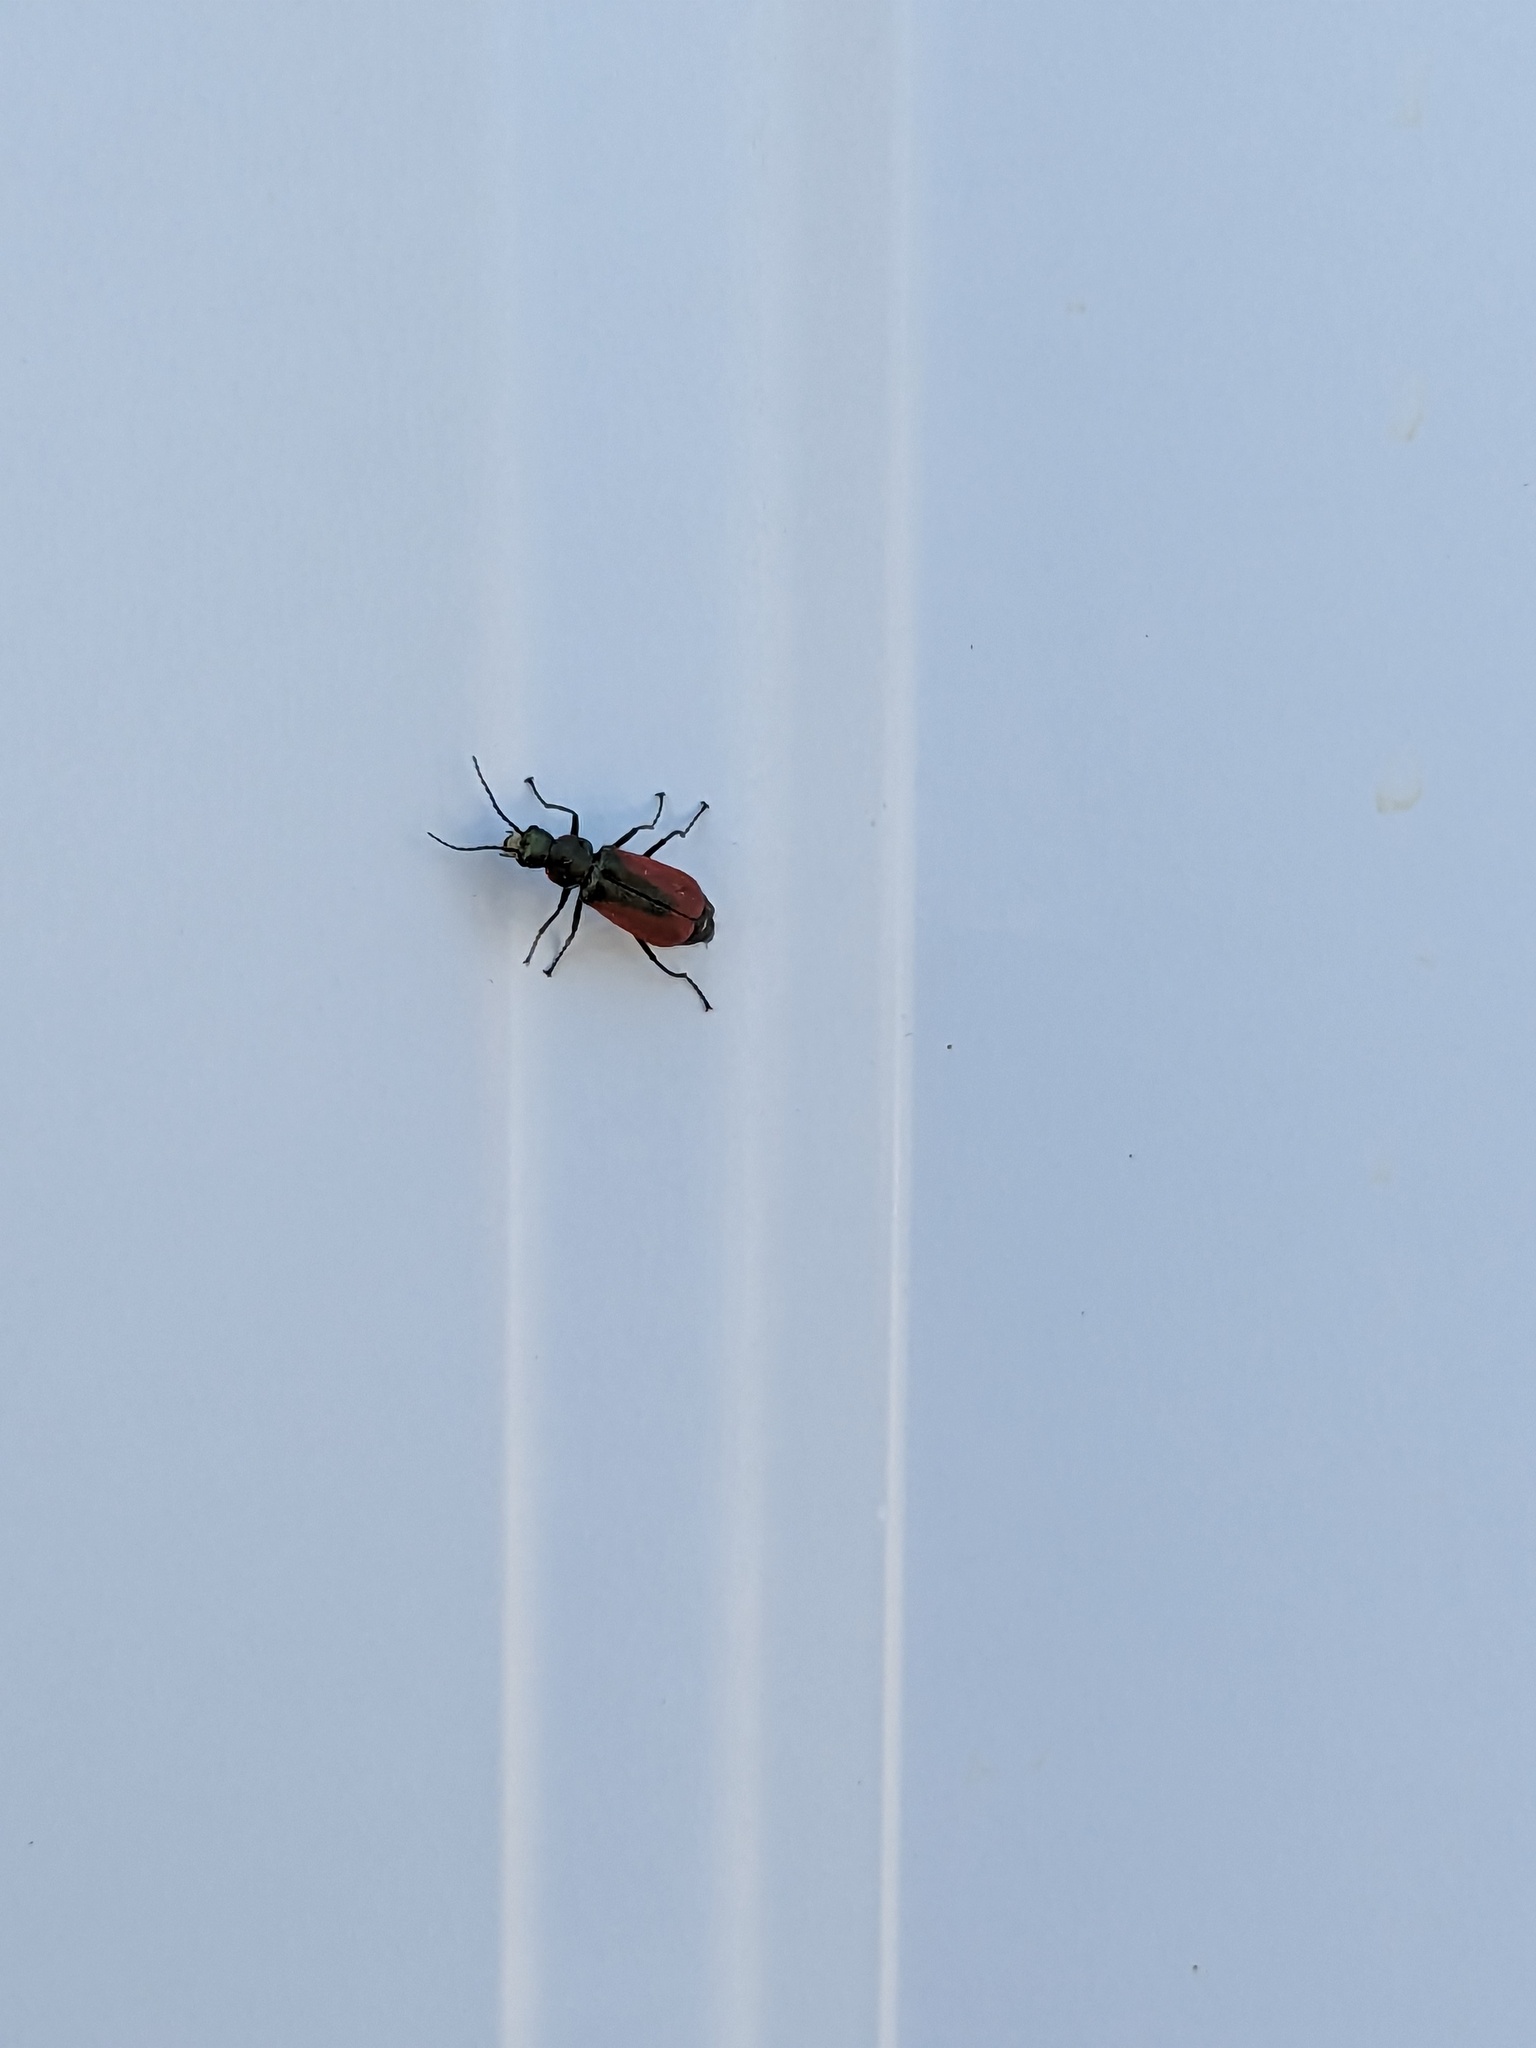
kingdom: Animalia
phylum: Arthropoda
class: Insecta
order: Coleoptera
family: Melyridae
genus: Malachius
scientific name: Malachius aeneus
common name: Scarlet malachite beetle
